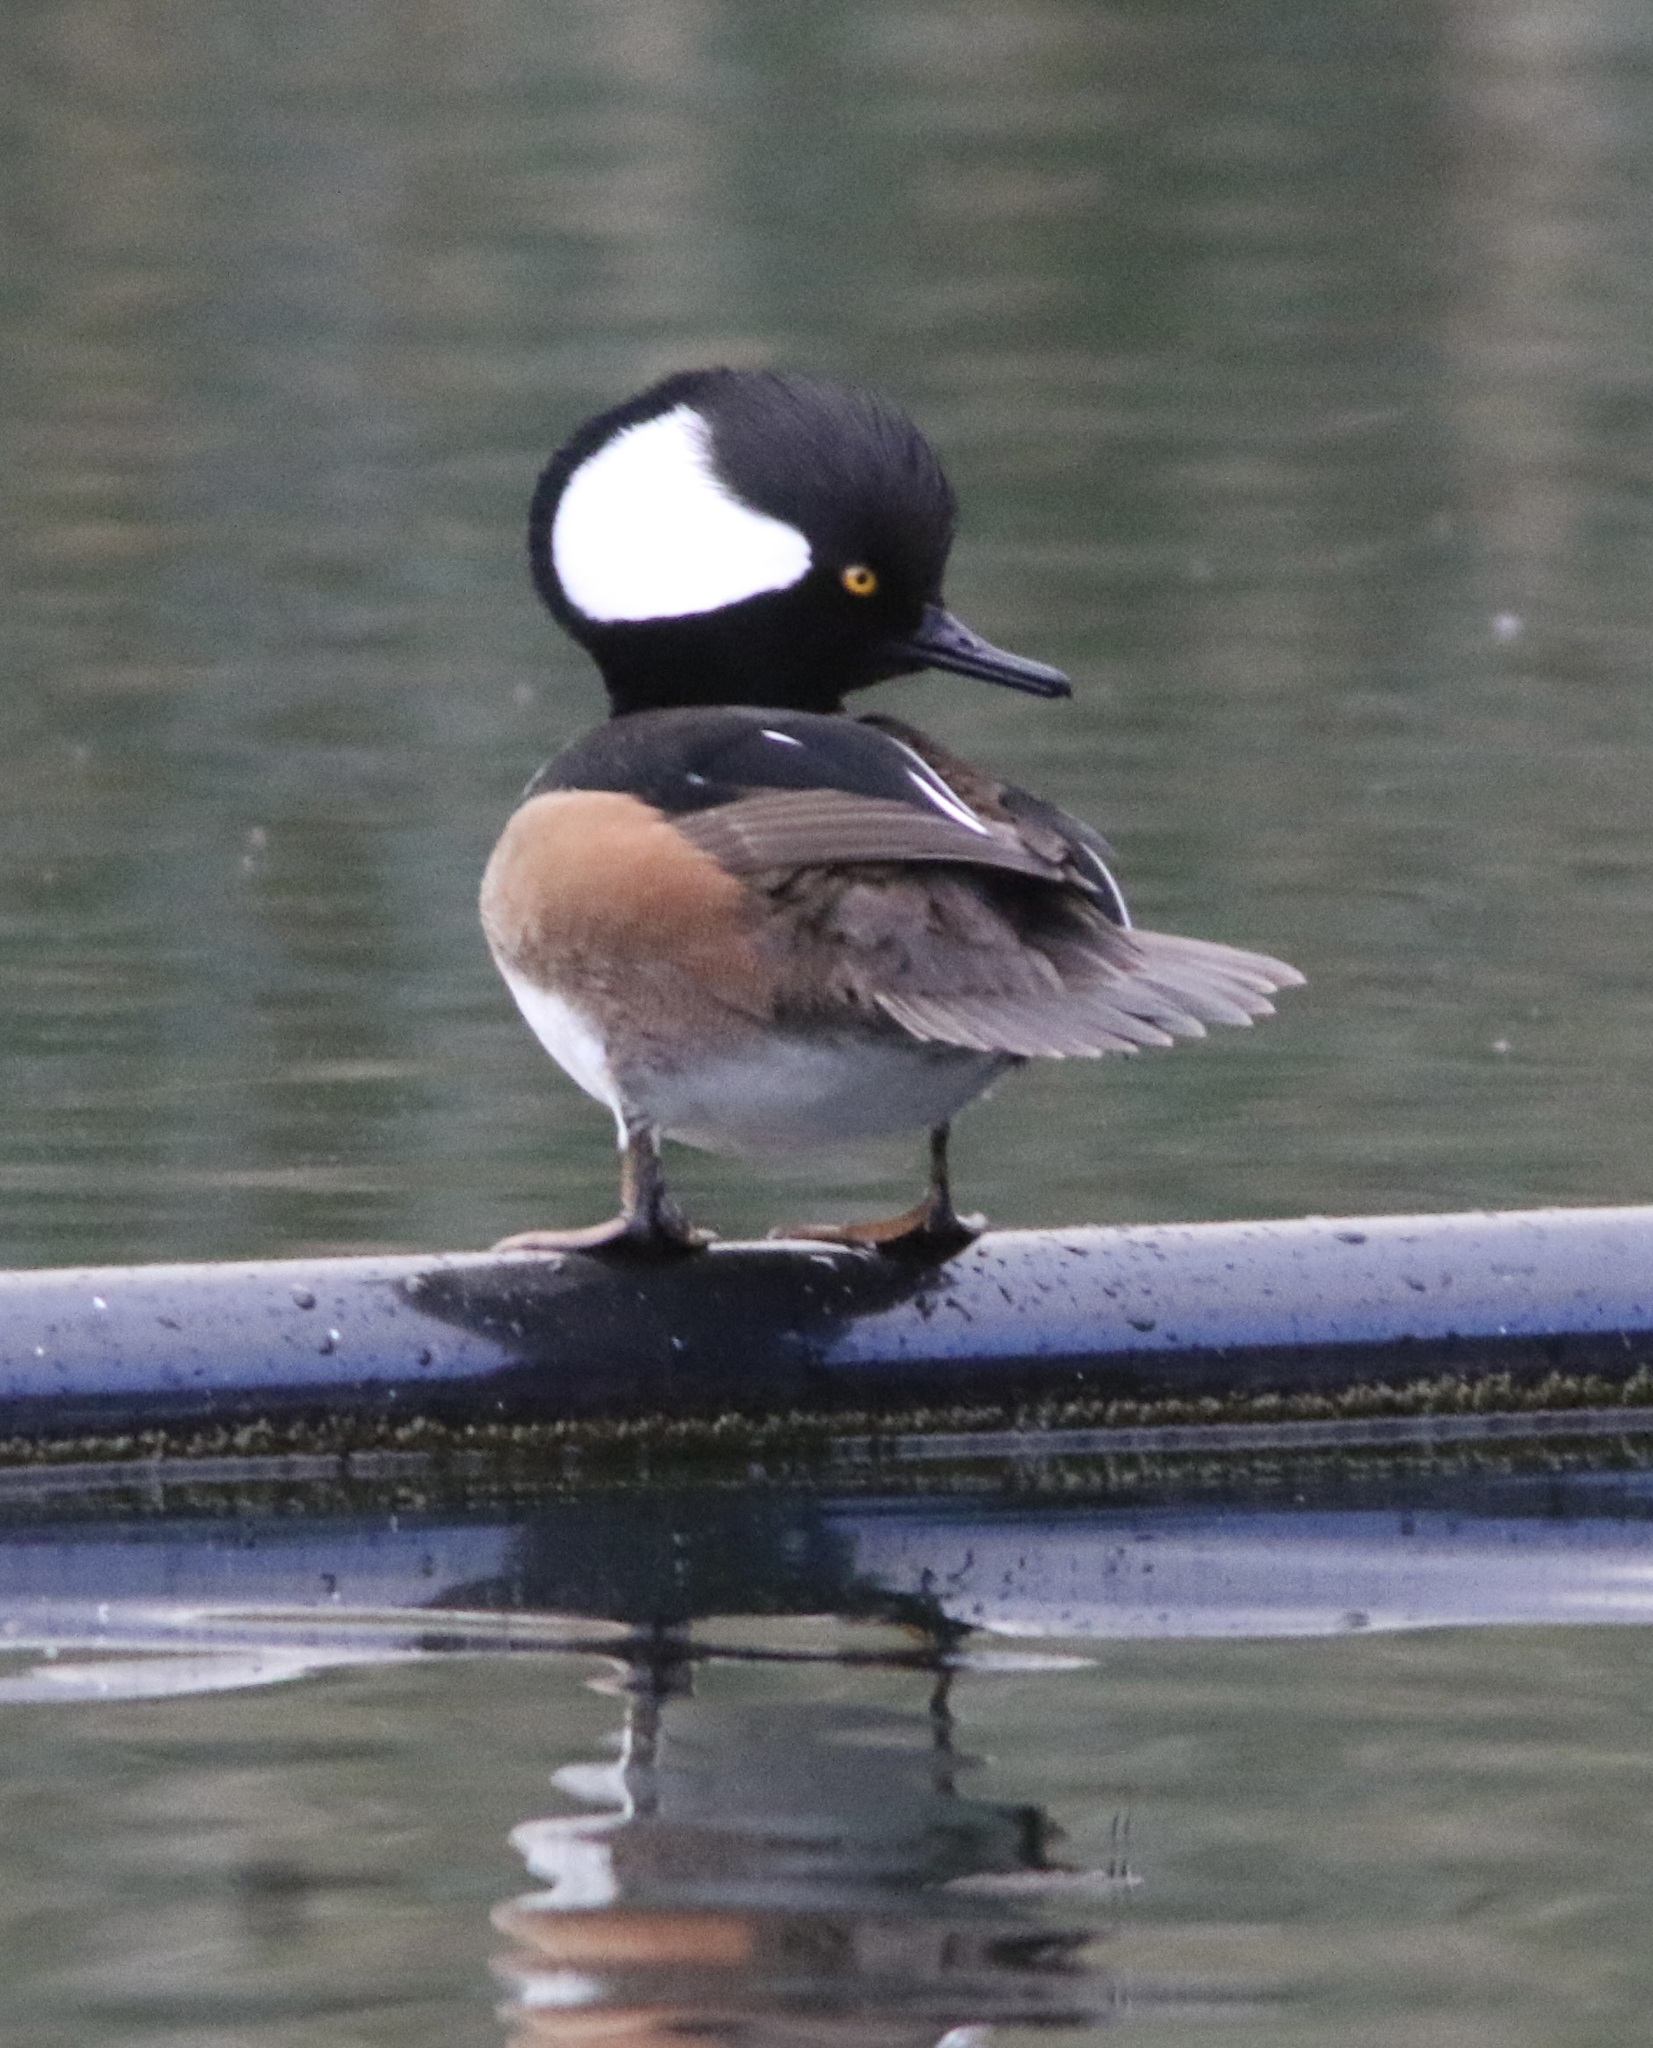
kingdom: Animalia
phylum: Chordata
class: Aves
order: Anseriformes
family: Anatidae
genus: Lophodytes
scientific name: Lophodytes cucullatus
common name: Hooded merganser
